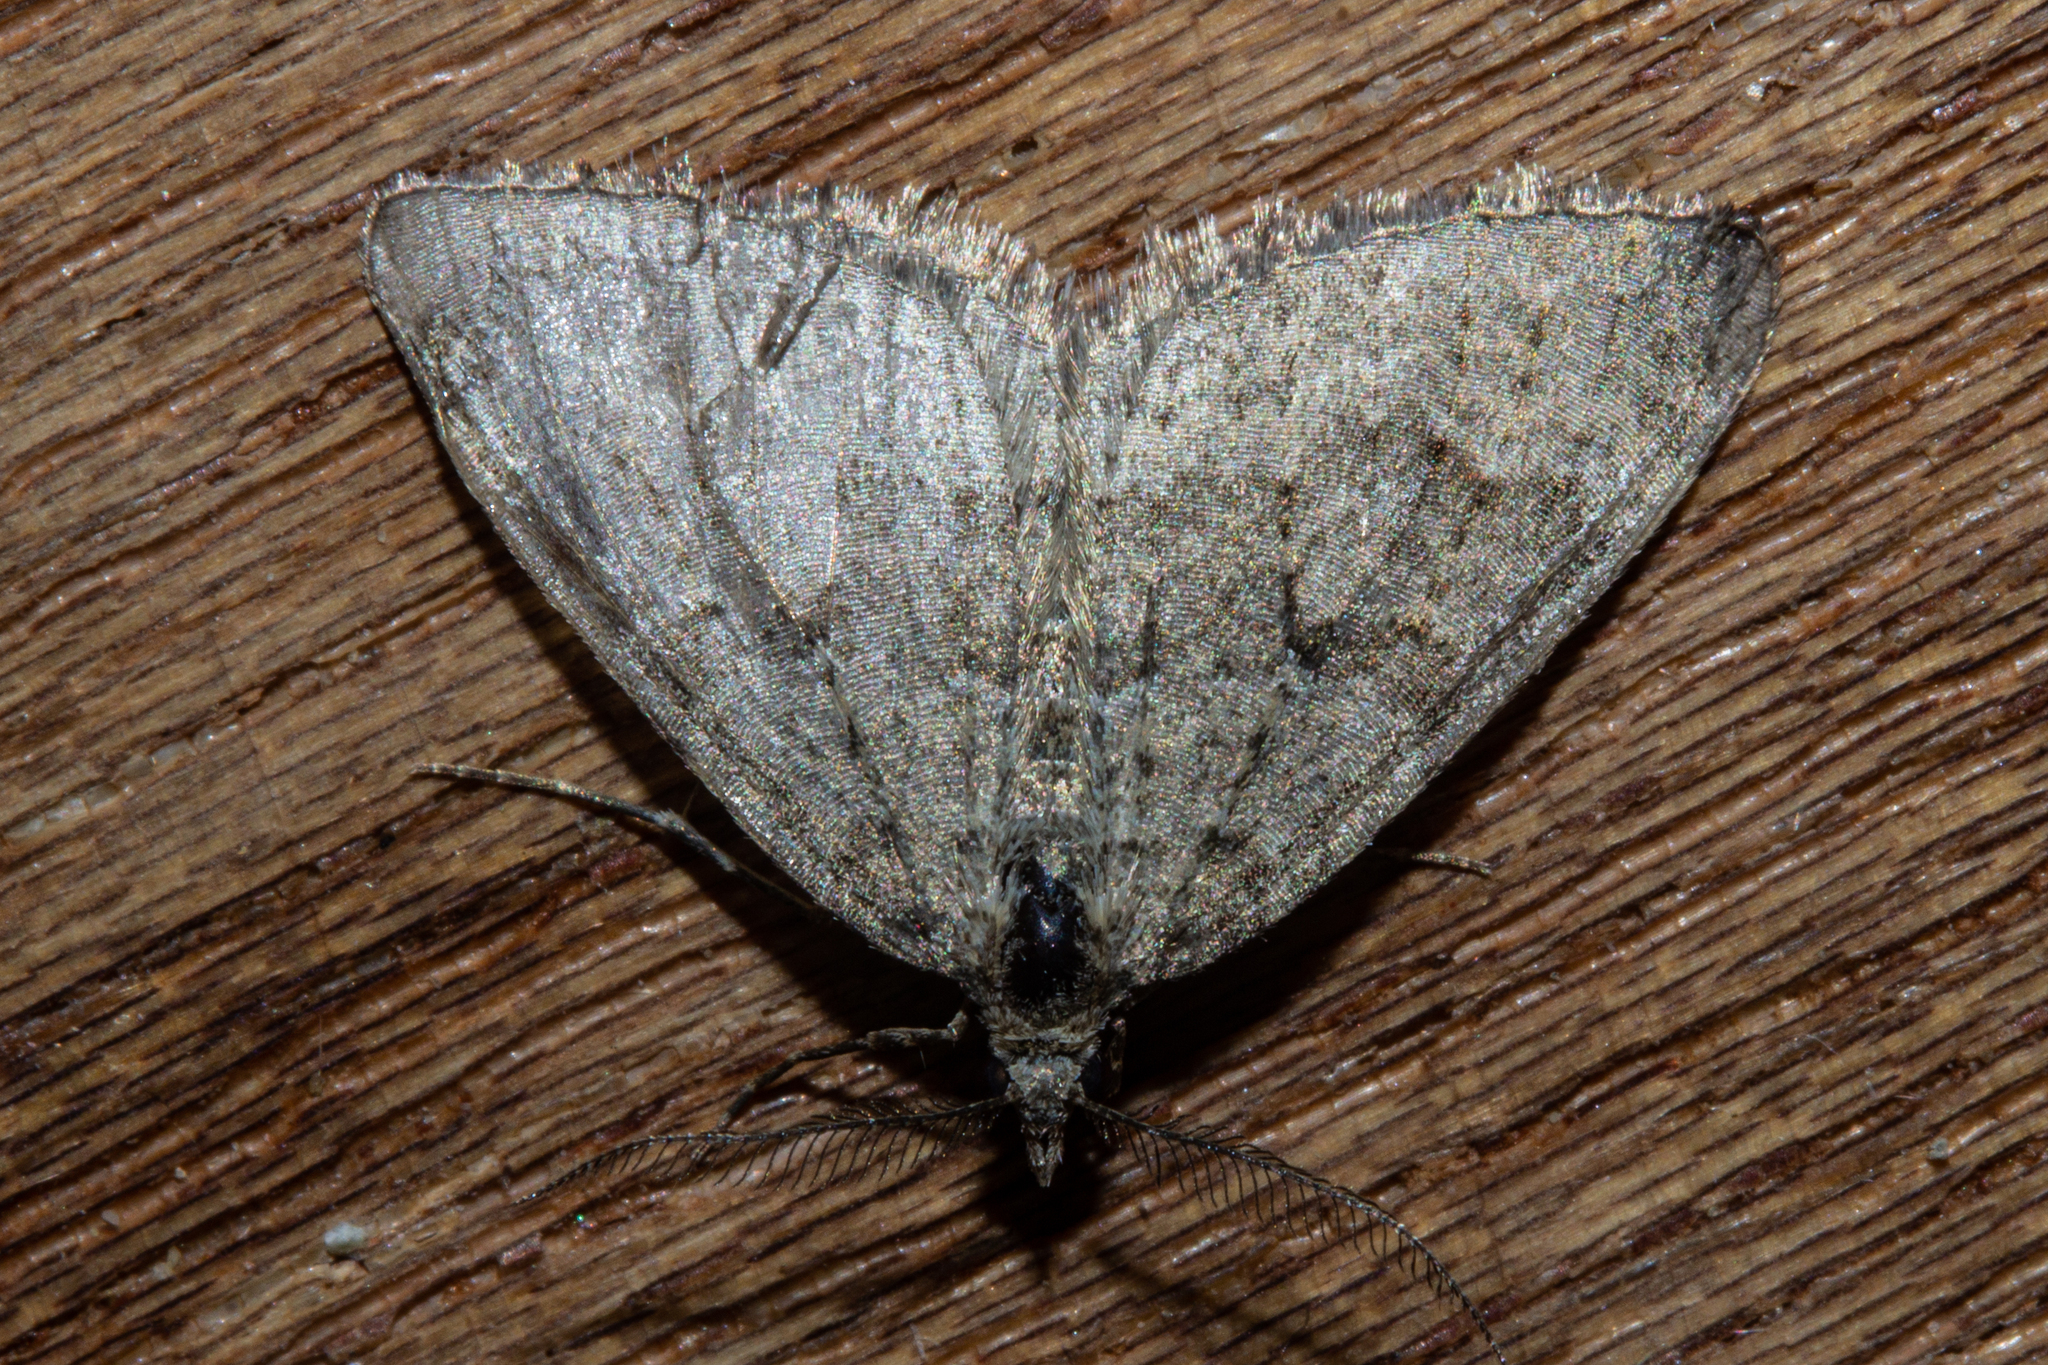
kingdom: Animalia
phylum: Arthropoda
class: Insecta
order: Lepidoptera
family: Geometridae
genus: Helastia
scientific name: Helastia corcularia
